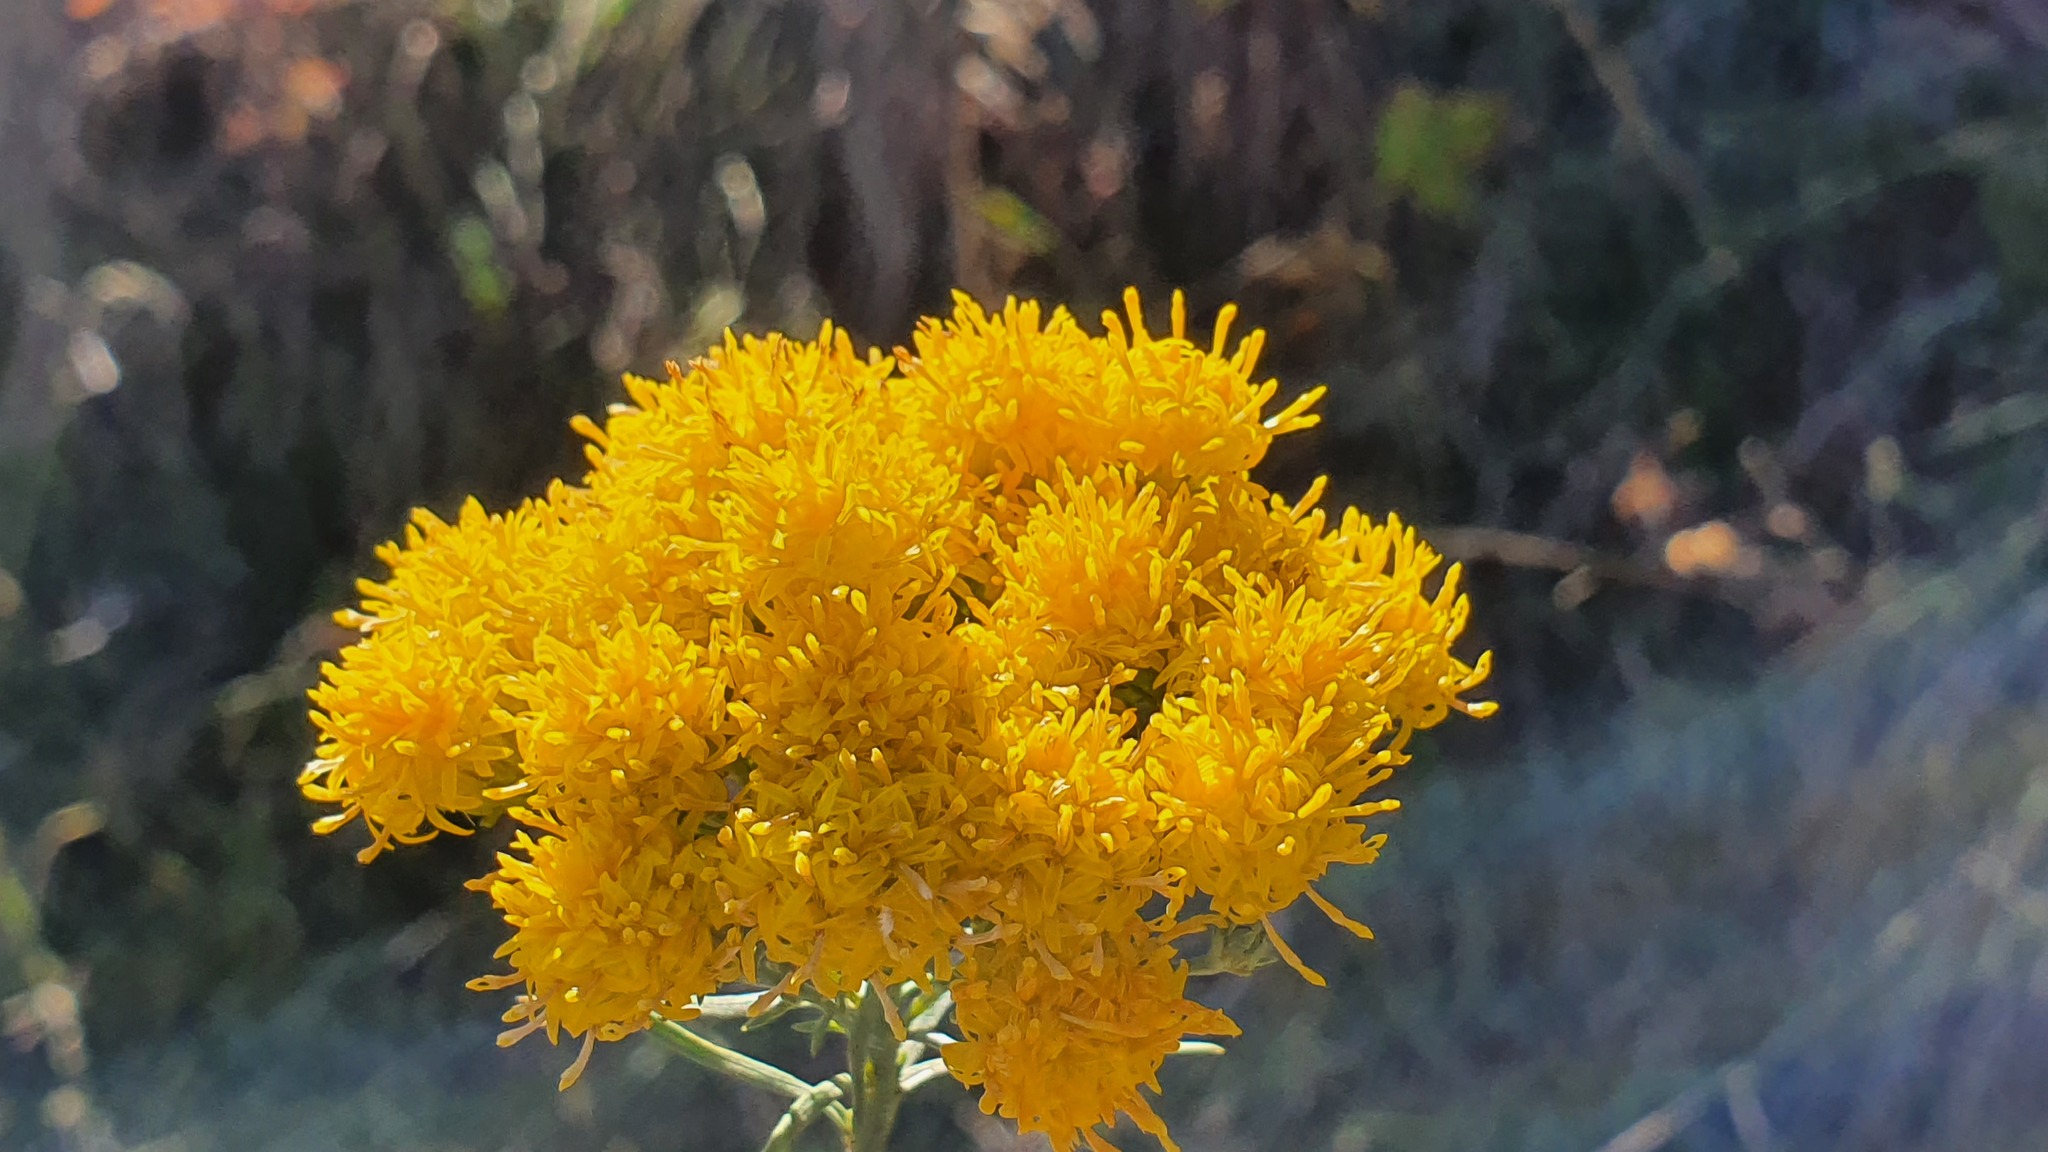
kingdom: Plantae
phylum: Tracheophyta
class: Magnoliopsida
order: Asterales
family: Asteraceae
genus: Galatella
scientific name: Galatella linosyris
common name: Goldilocks aster
